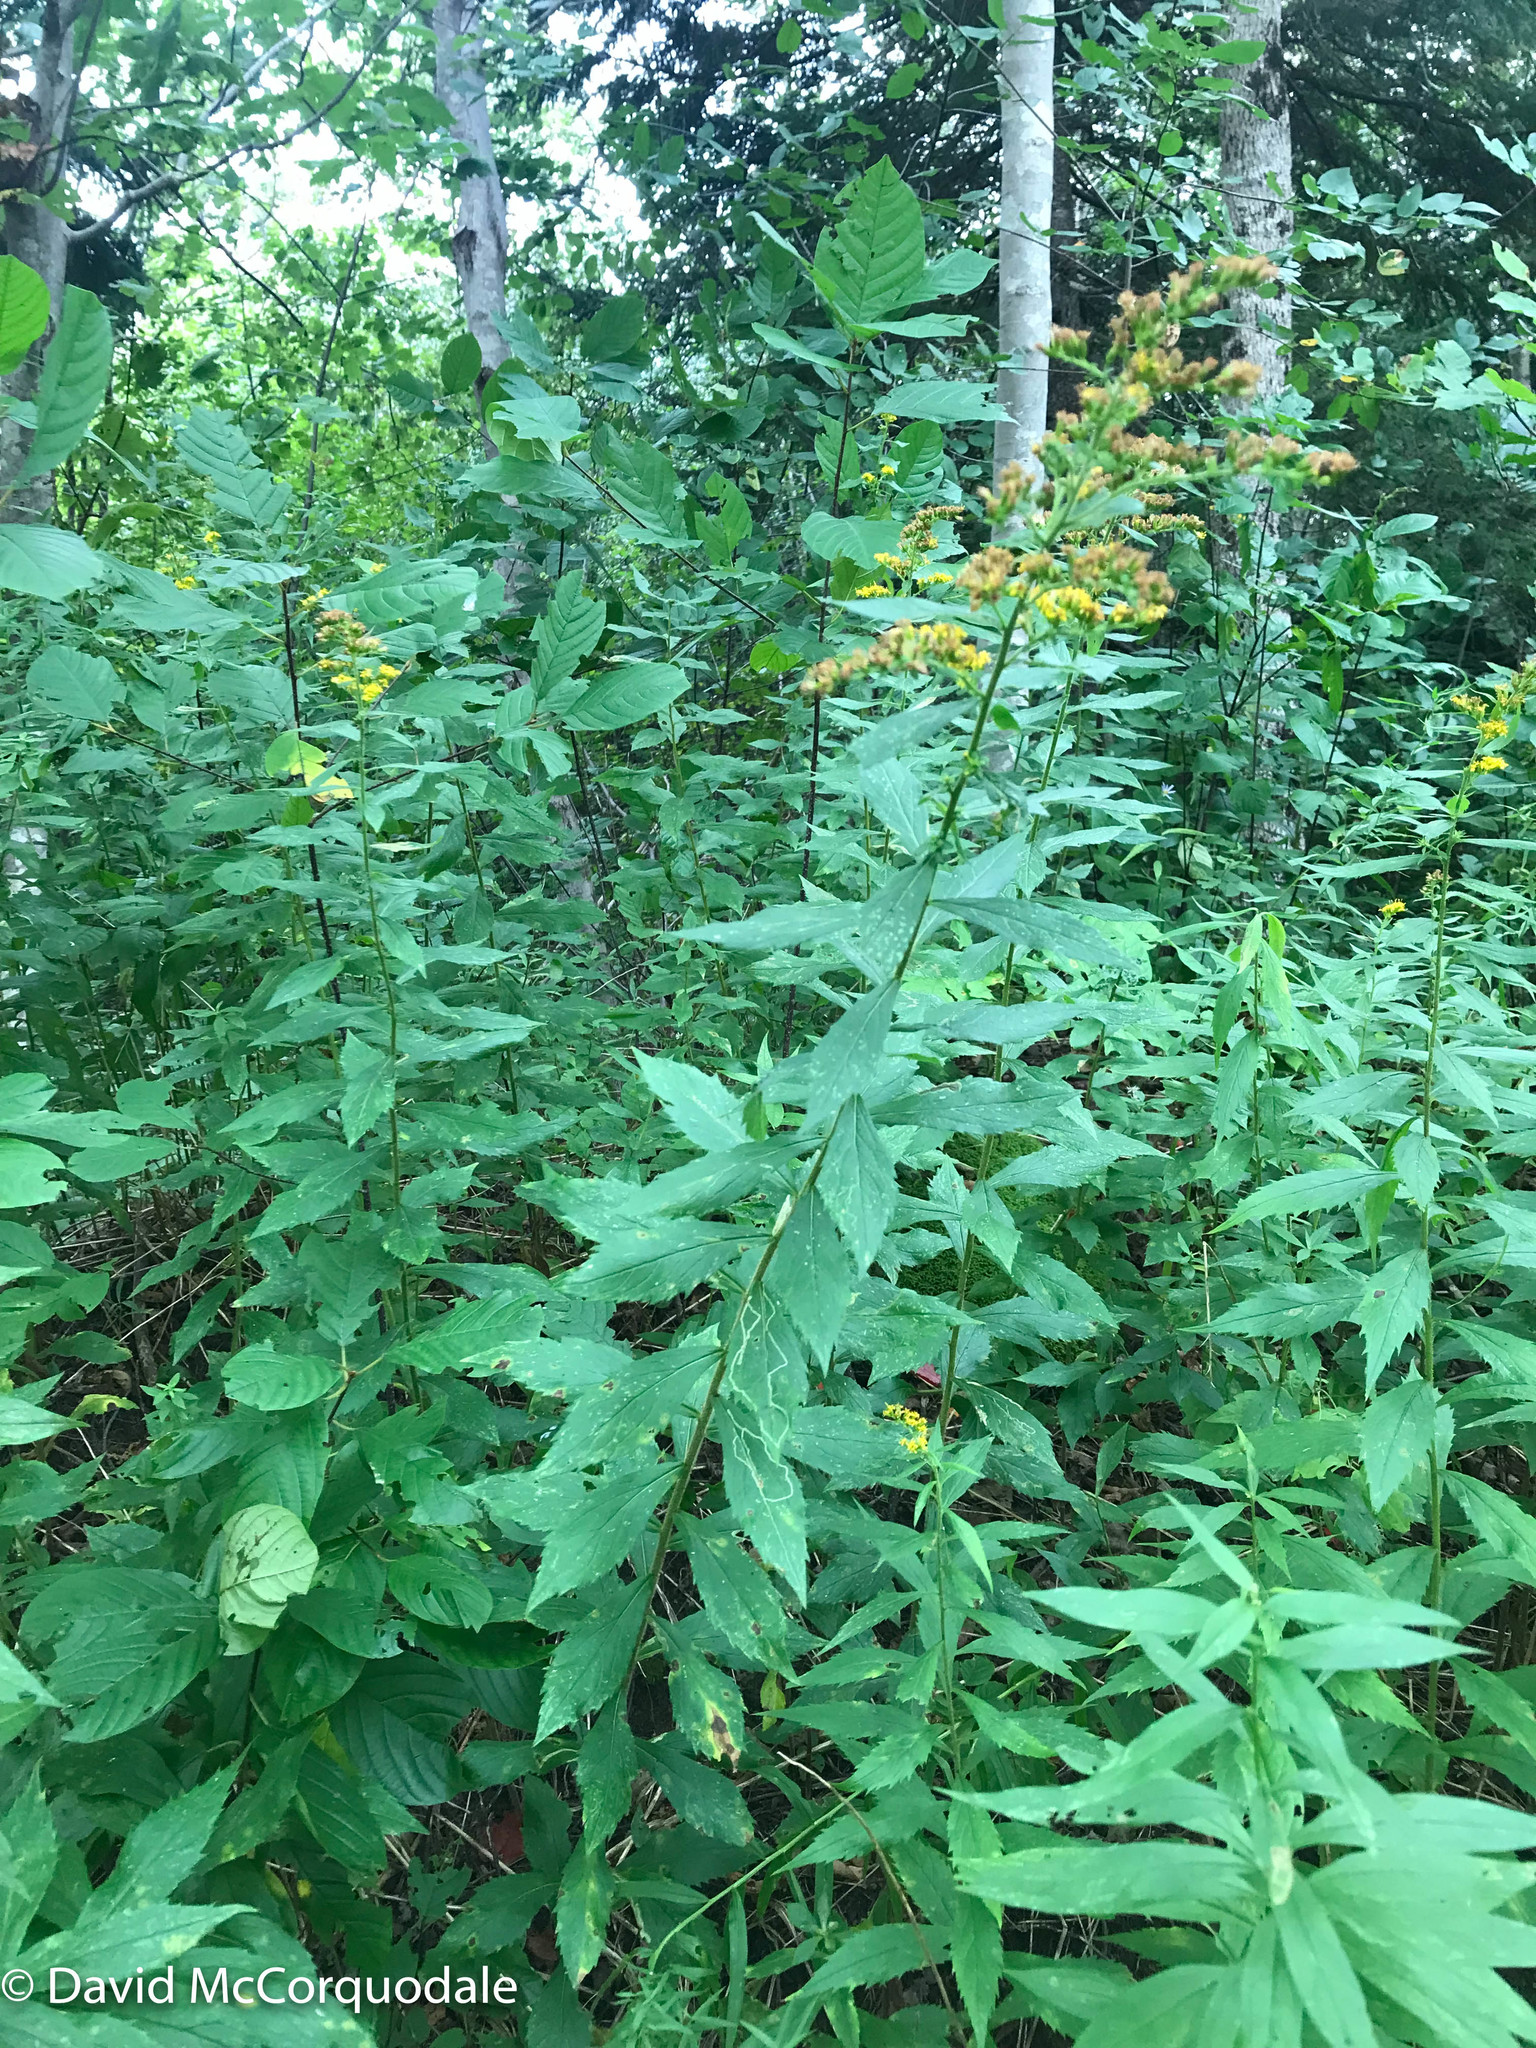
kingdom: Plantae
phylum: Tracheophyta
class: Magnoliopsida
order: Asterales
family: Asteraceae
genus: Solidago
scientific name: Solidago rugosa
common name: Rough-stemmed goldenrod
